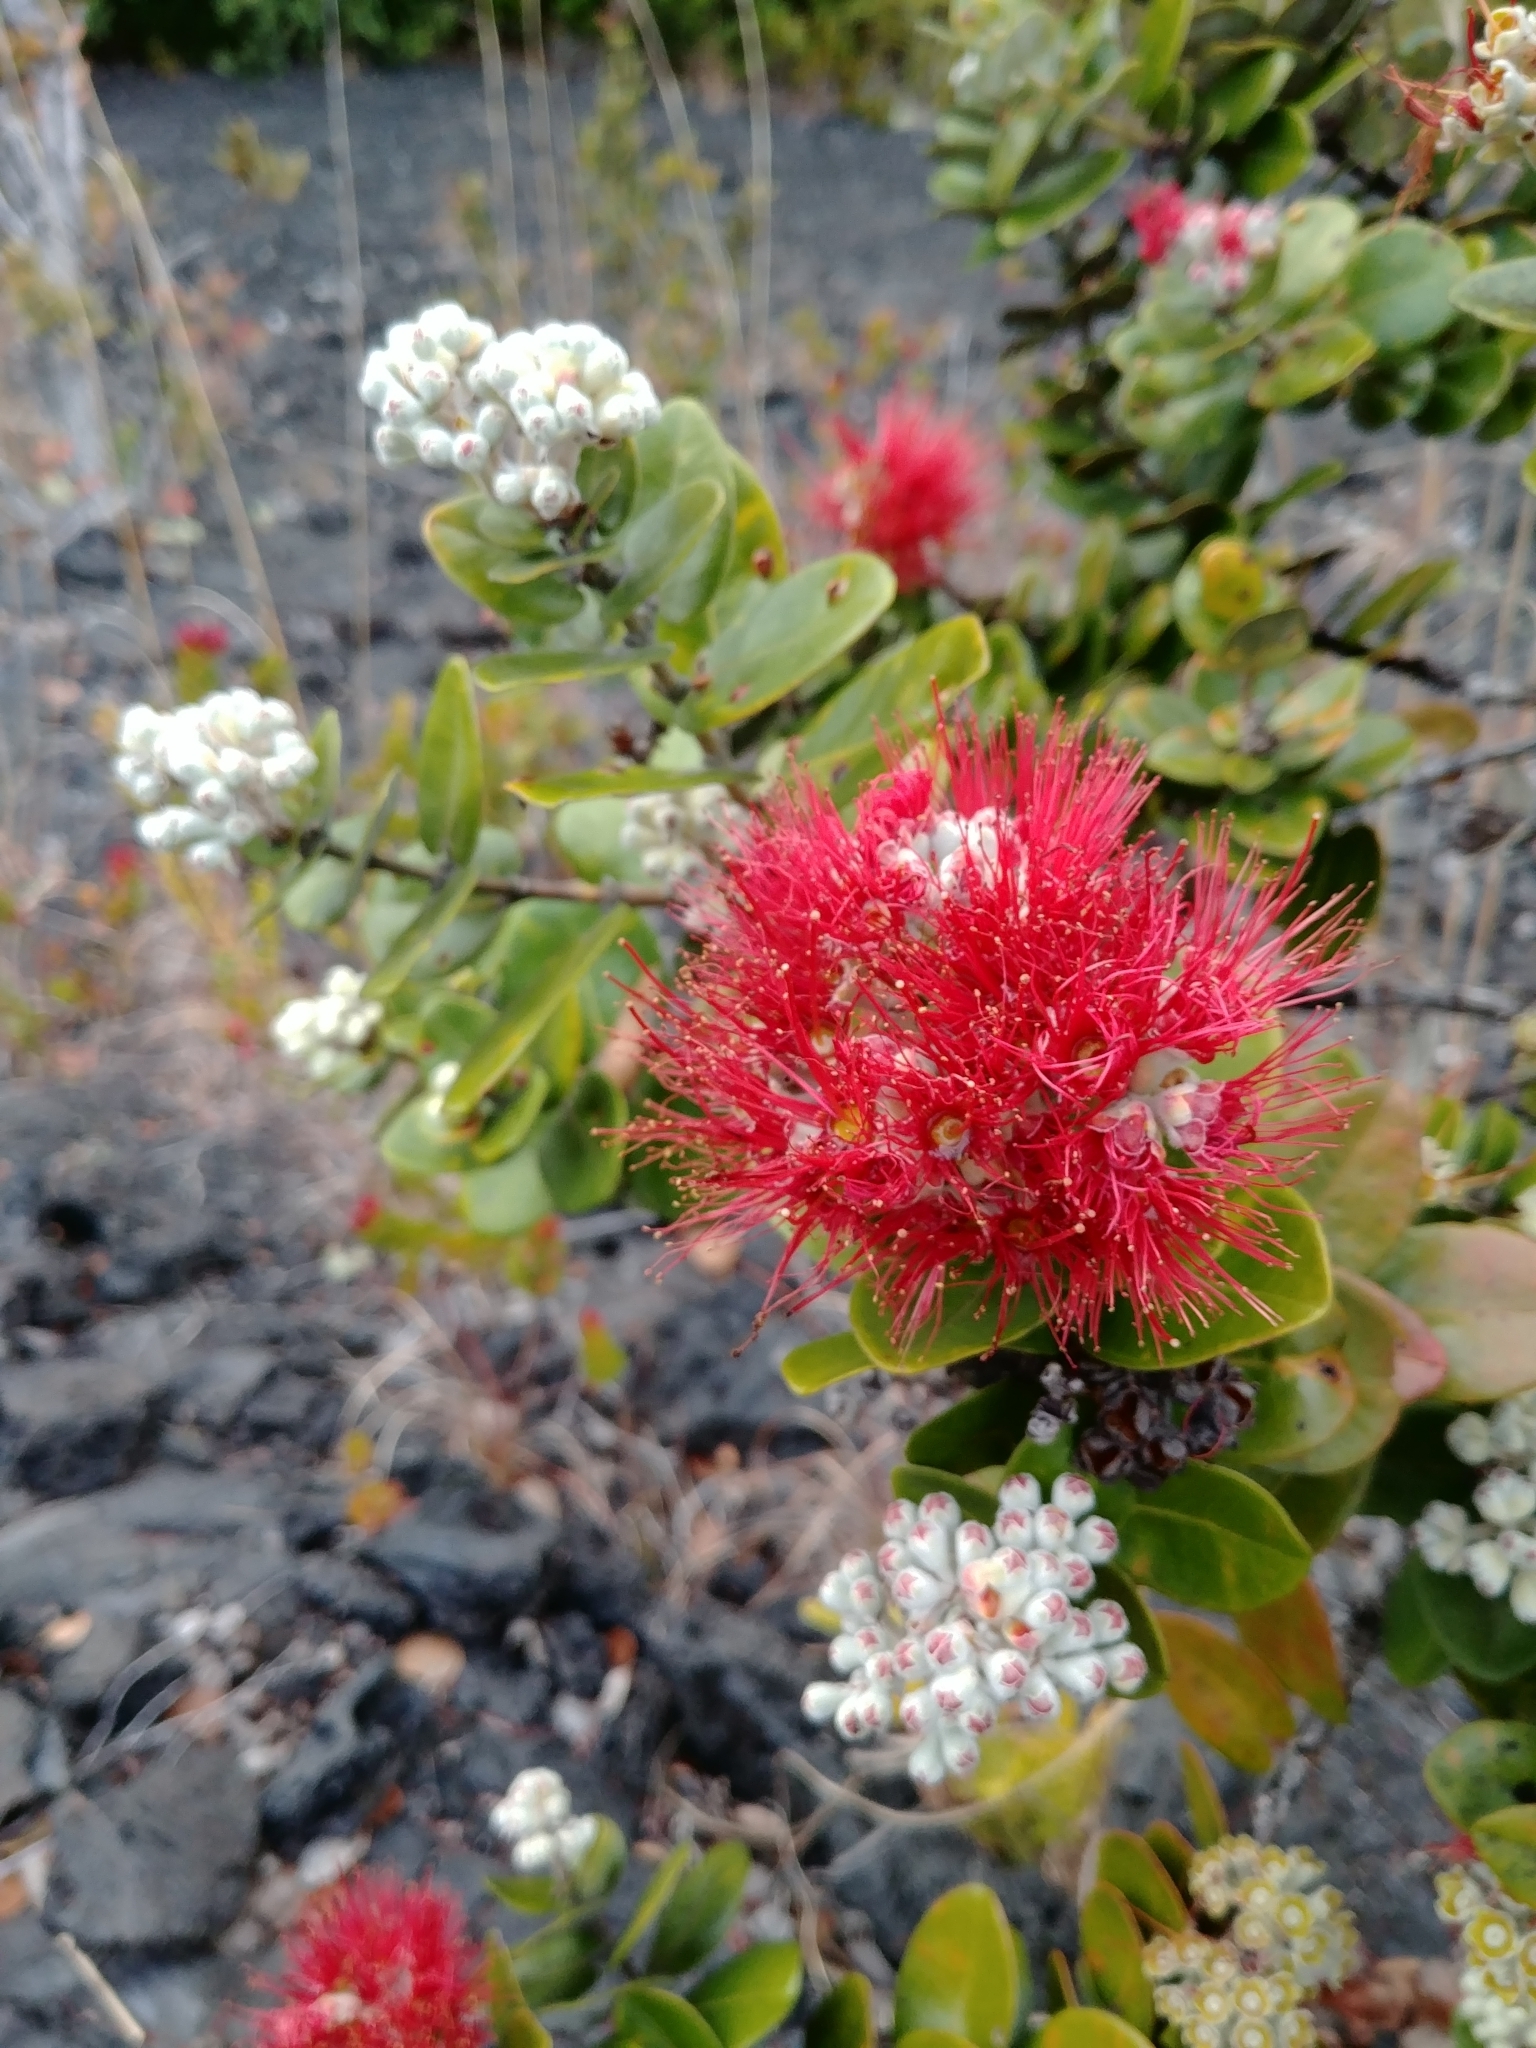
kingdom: Plantae
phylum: Tracheophyta
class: Magnoliopsida
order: Myrtales
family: Myrtaceae
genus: Metrosideros
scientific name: Metrosideros polymorpha
